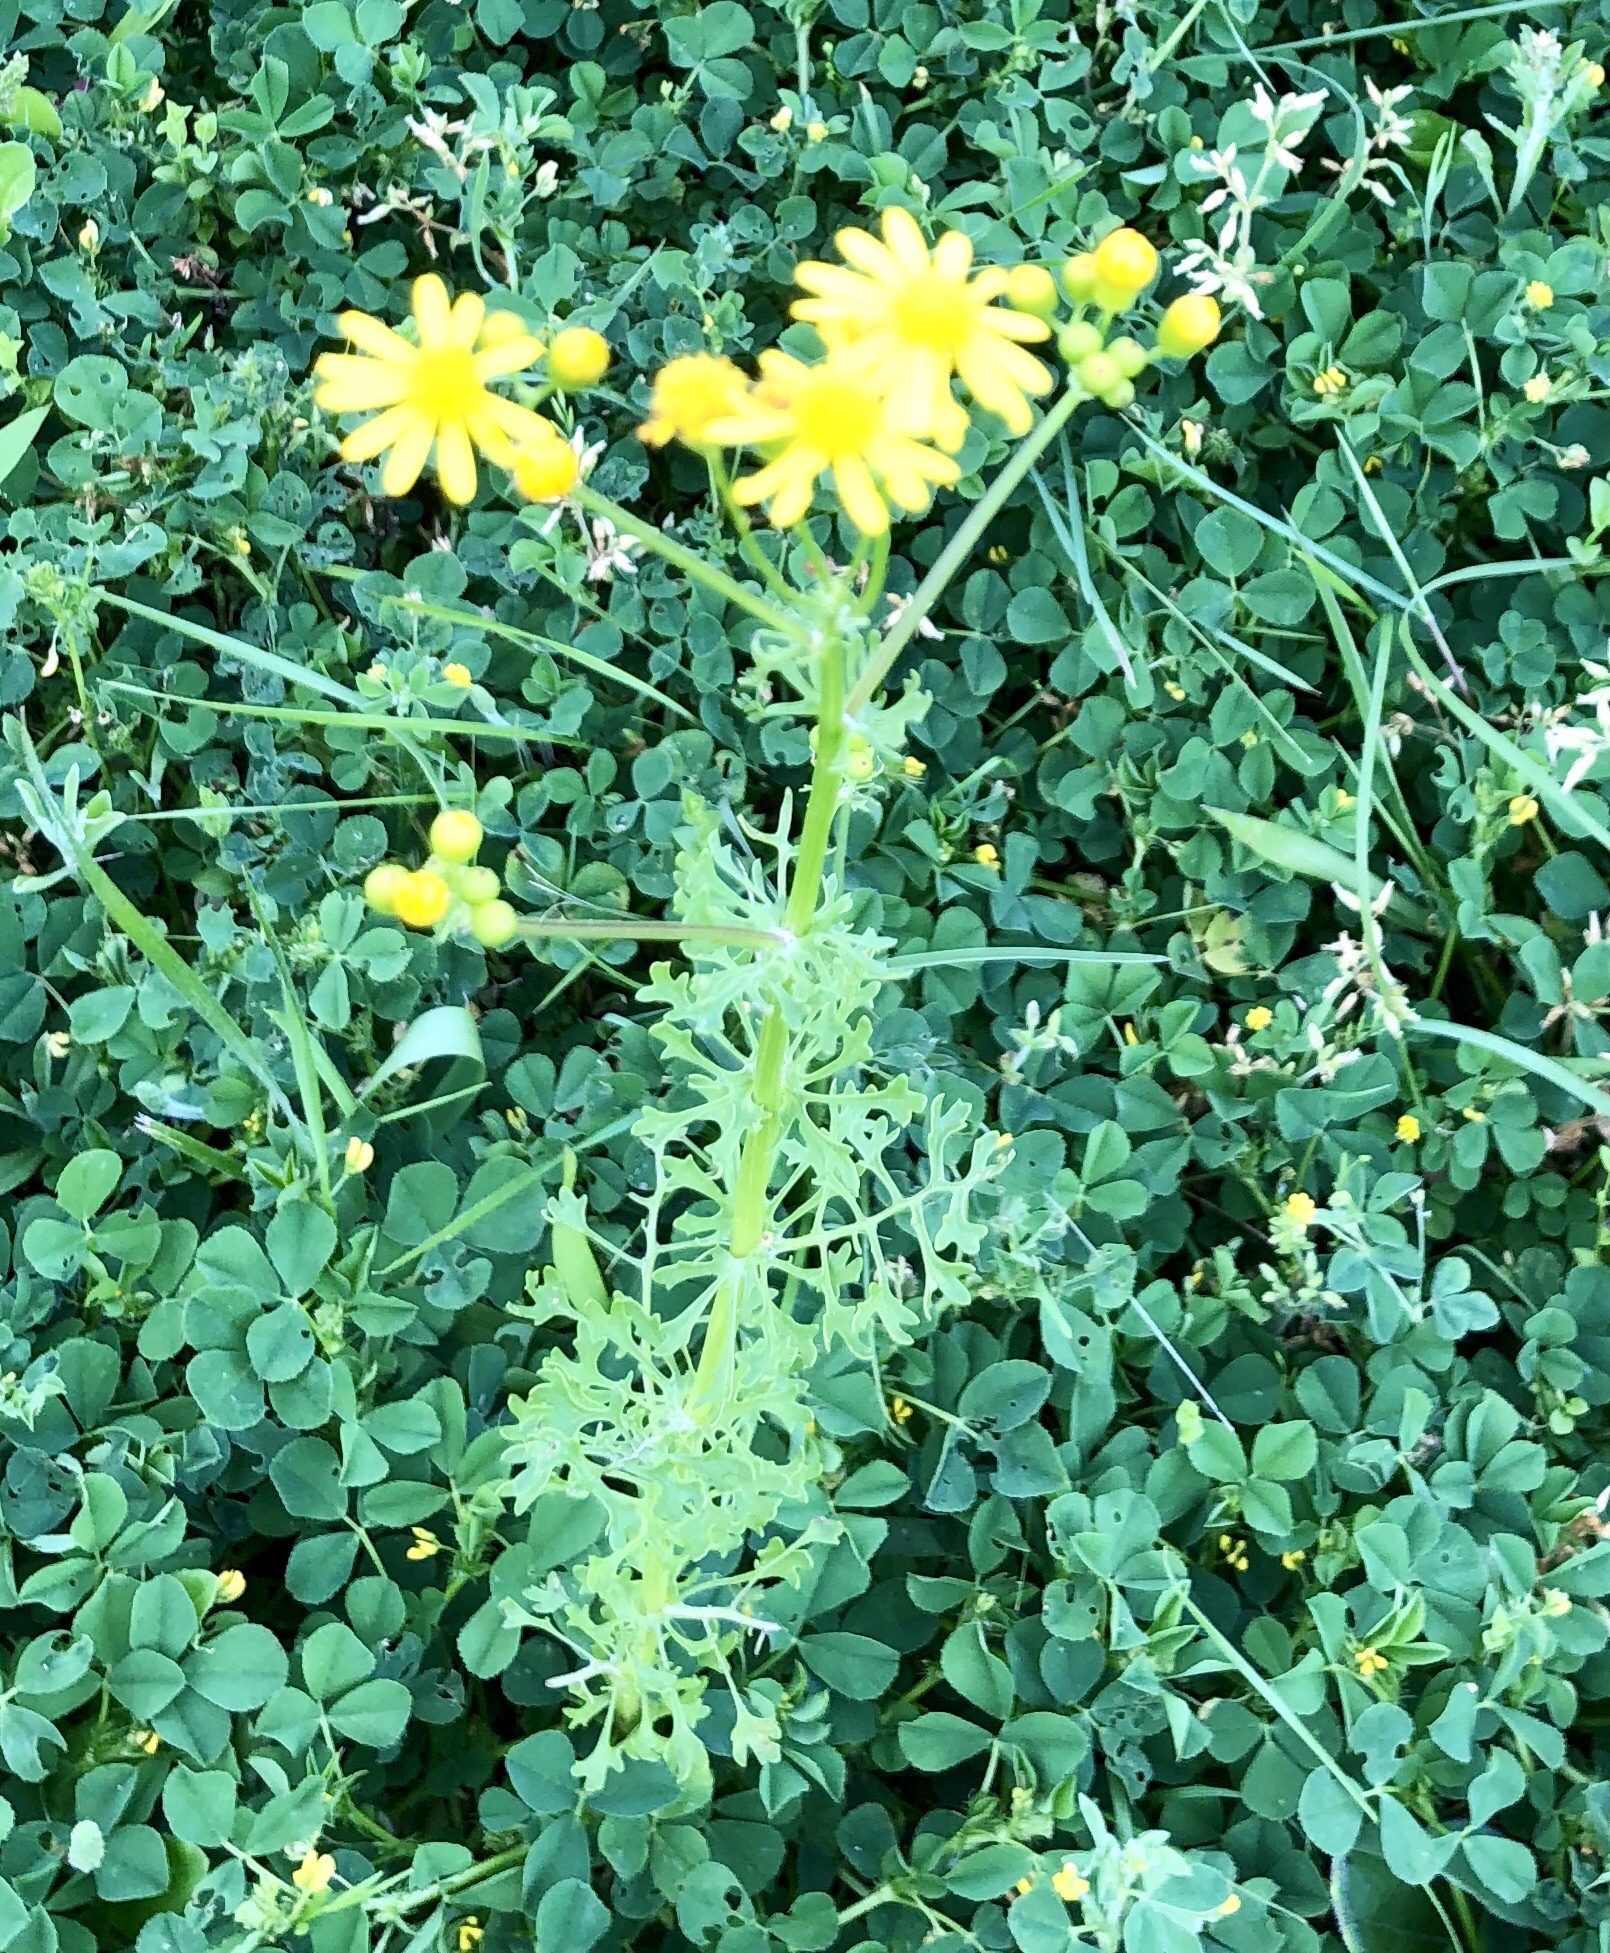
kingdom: Plantae
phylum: Tracheophyta
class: Magnoliopsida
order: Asterales
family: Asteraceae
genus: Packera
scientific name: Packera tampicana
